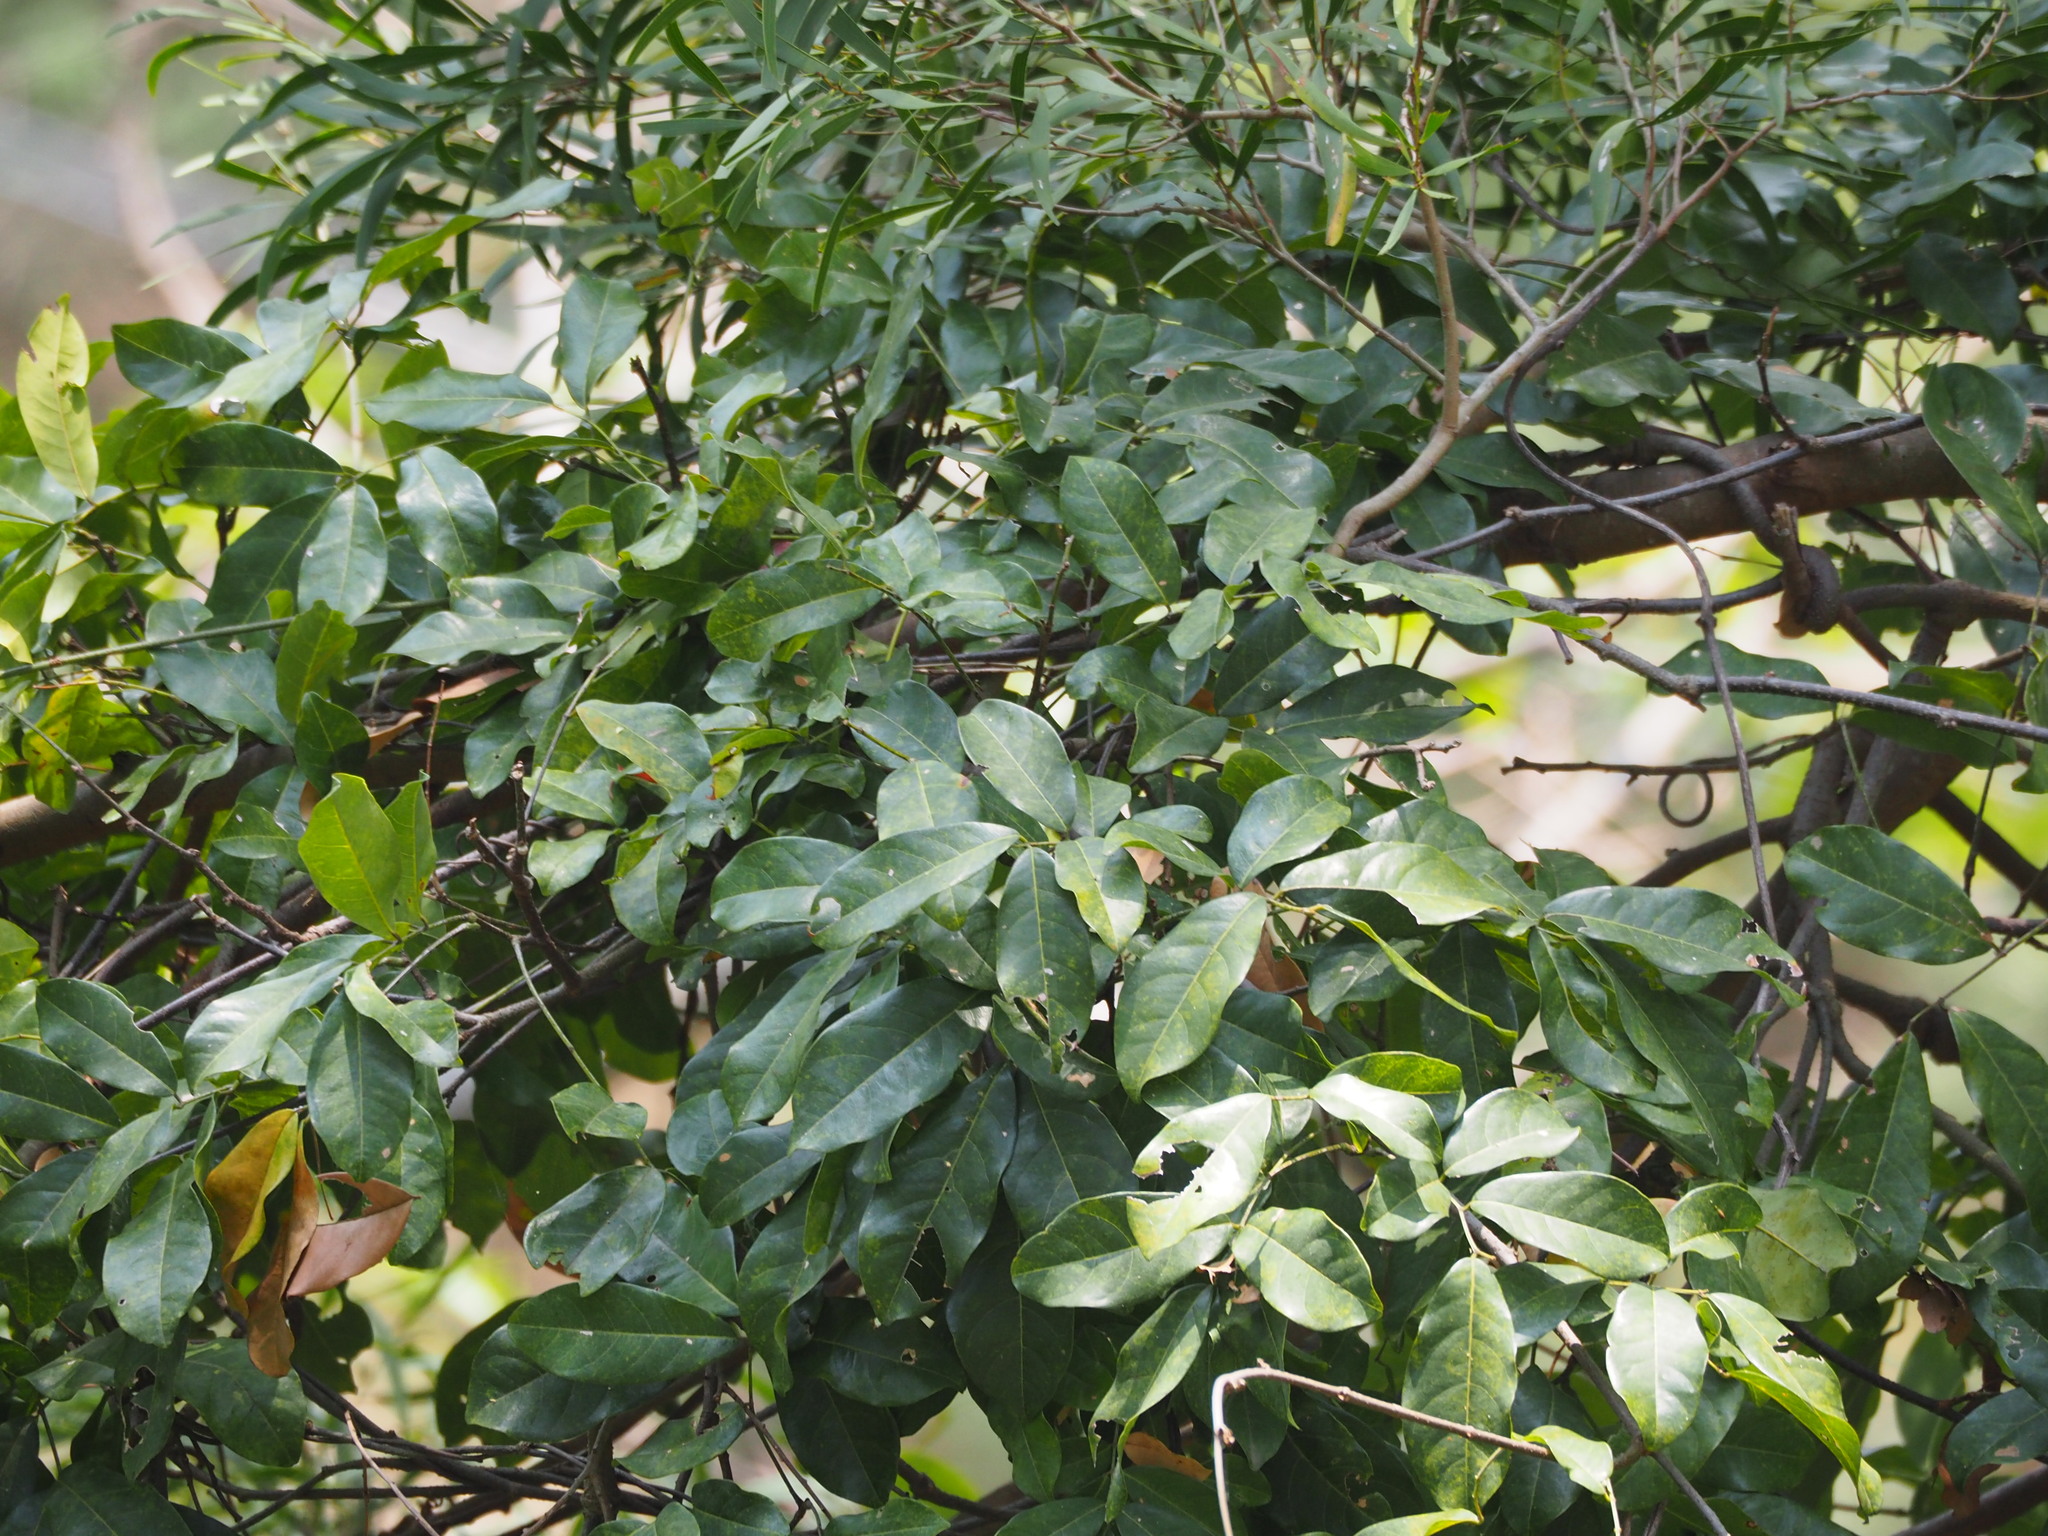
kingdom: Plantae
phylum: Tracheophyta
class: Magnoliopsida
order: Rosales
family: Moraceae
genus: Malaisia
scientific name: Malaisia scandens
